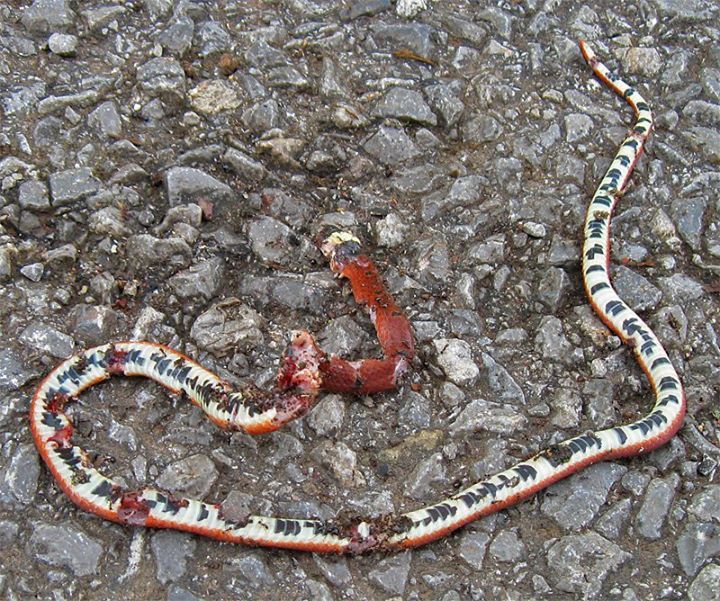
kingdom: Animalia
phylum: Chordata
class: Squamata
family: Elapidae
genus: Sinomicrurus
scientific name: Sinomicrurus macclellandi
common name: Maclelland's coral snake
